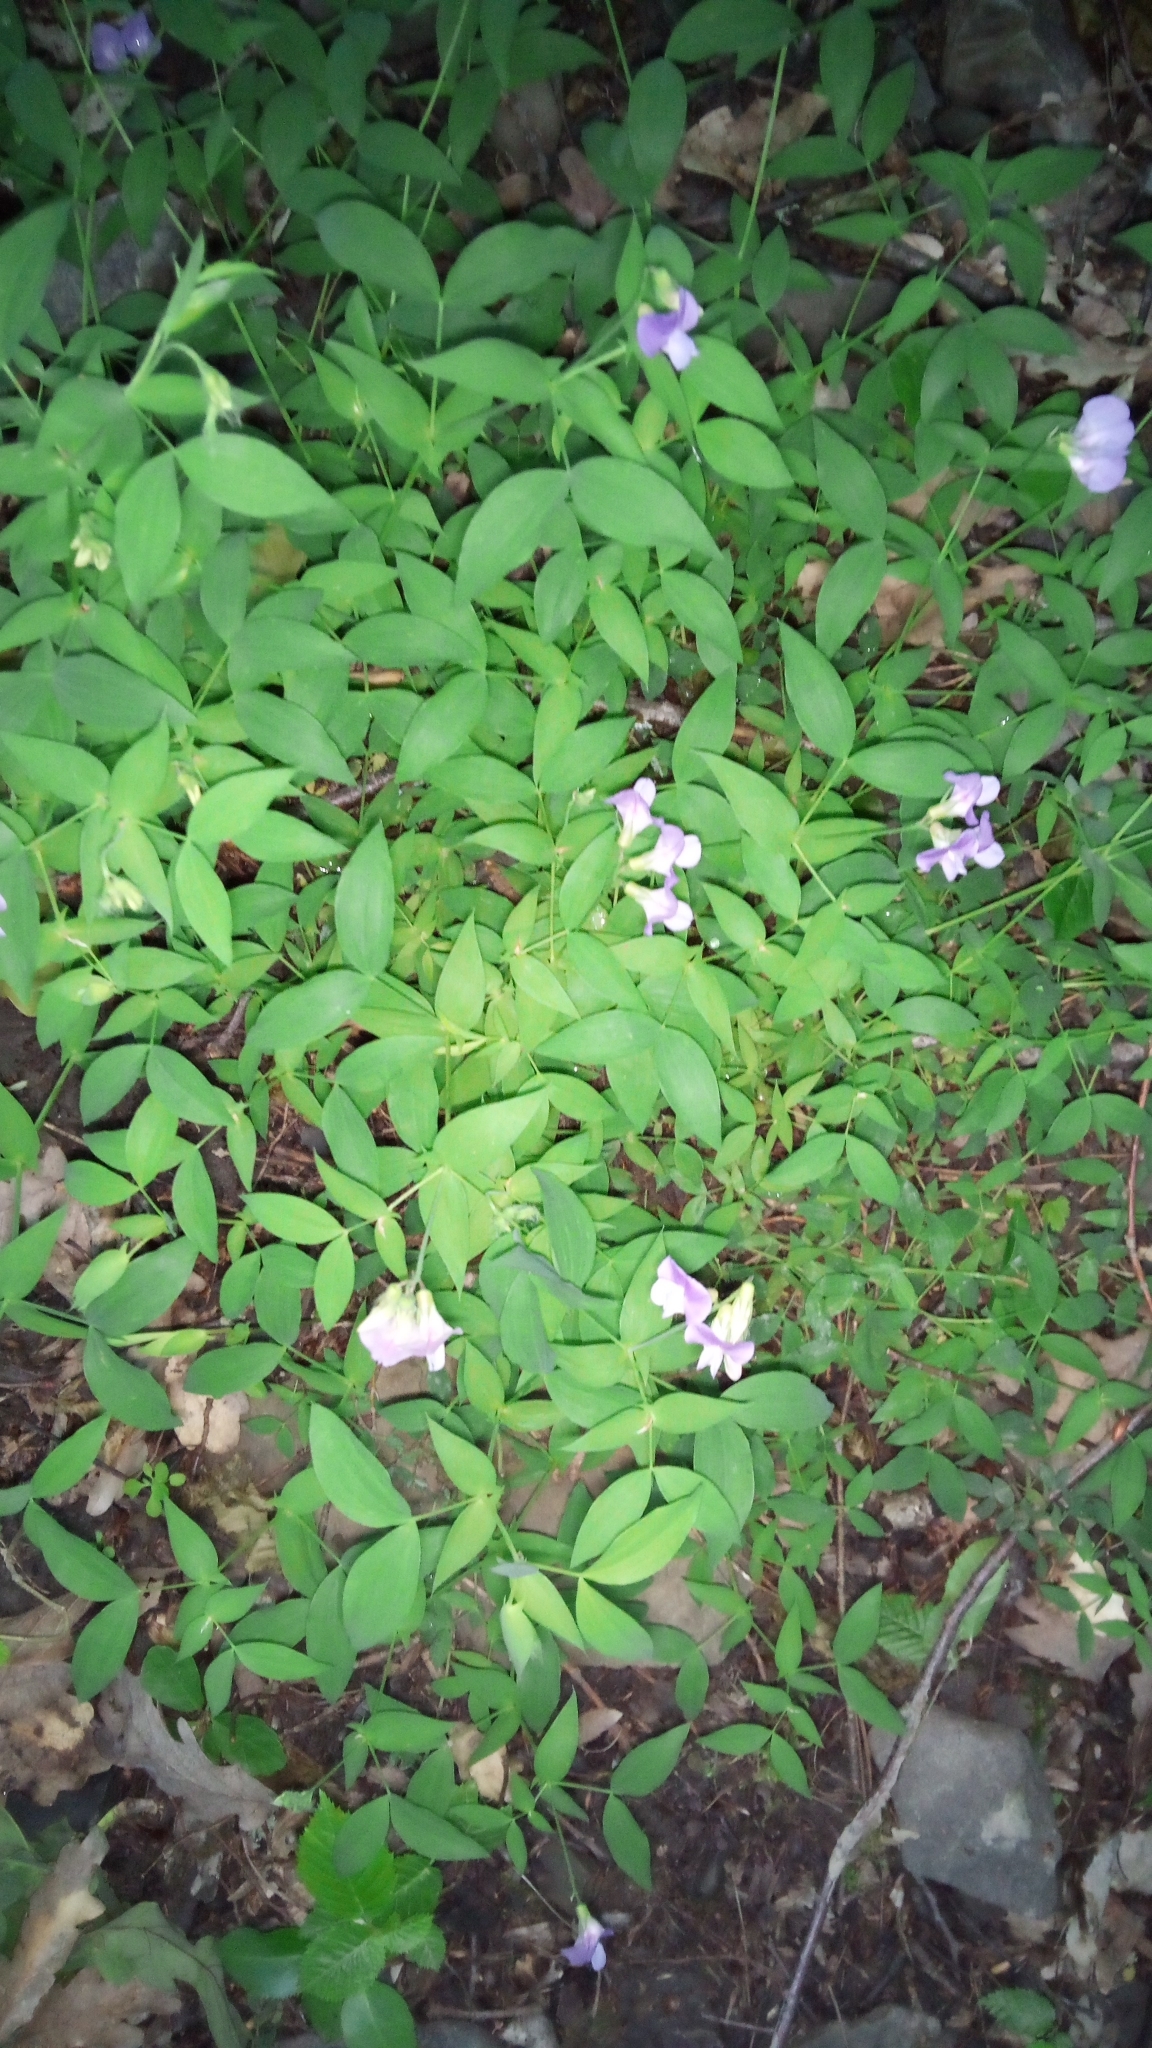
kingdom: Plantae
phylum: Tracheophyta
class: Magnoliopsida
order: Fabales
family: Fabaceae
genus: Lathyrus
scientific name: Lathyrus laxiflorus
